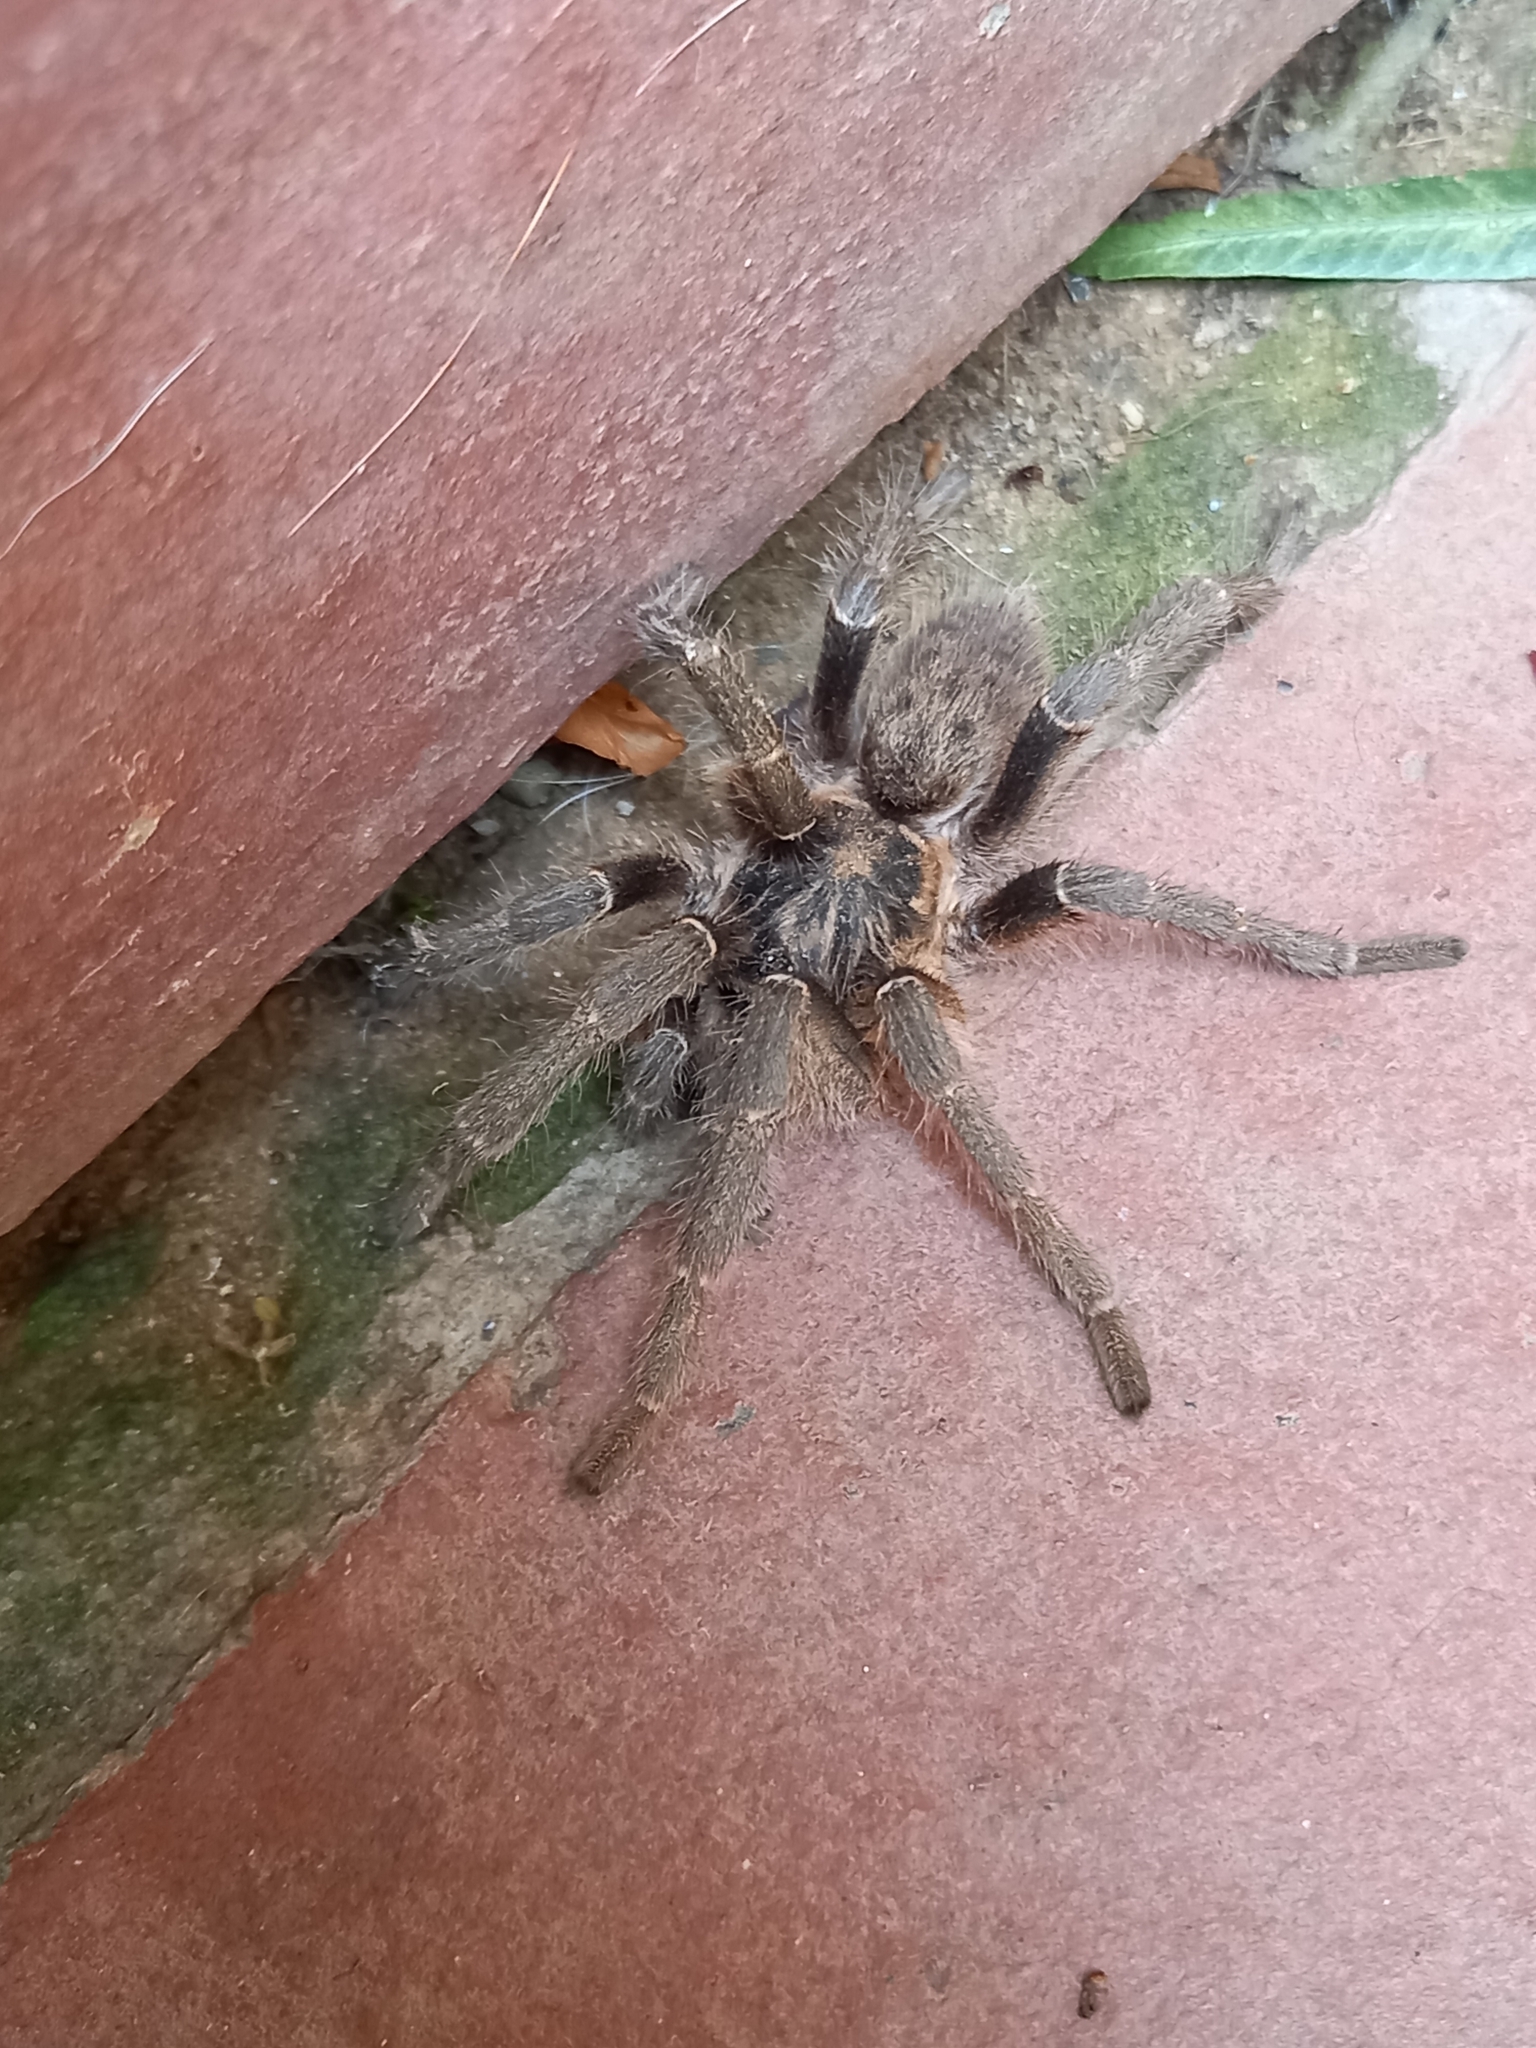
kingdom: Animalia
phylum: Arthropoda
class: Arachnida
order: Araneae
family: Theraphosidae
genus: Harpactirella
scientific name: Harpactirella magna
